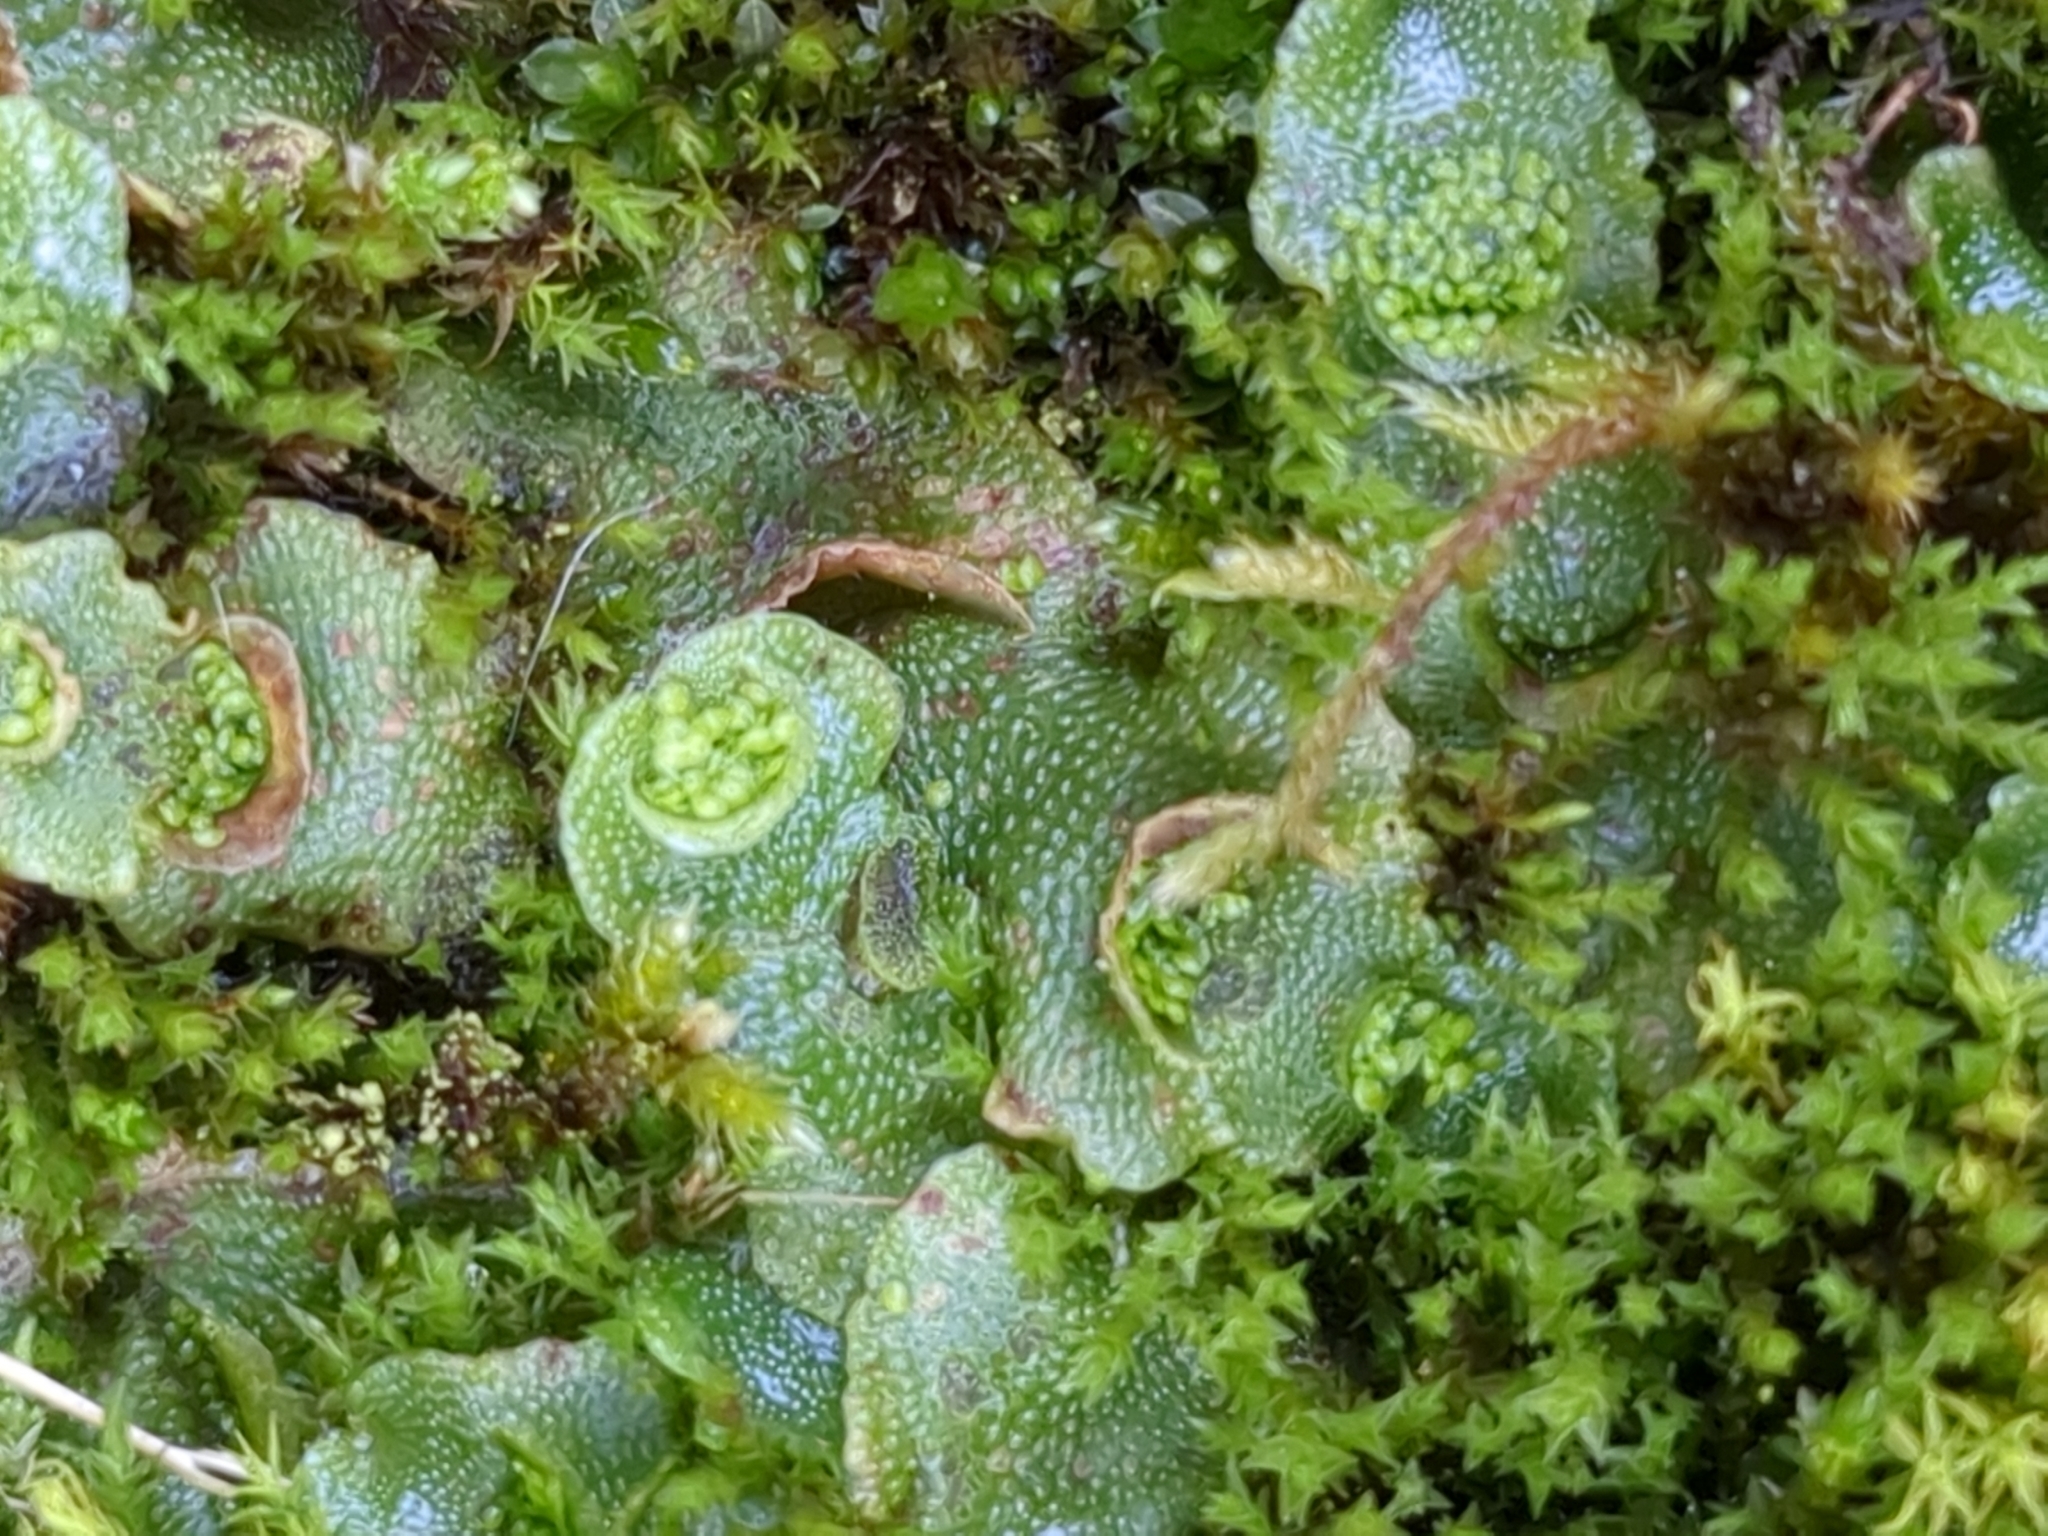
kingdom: Plantae
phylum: Marchantiophyta
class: Marchantiopsida
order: Lunulariales
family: Lunulariaceae
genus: Lunularia
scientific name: Lunularia cruciata
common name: Crescent-cup liverwort
